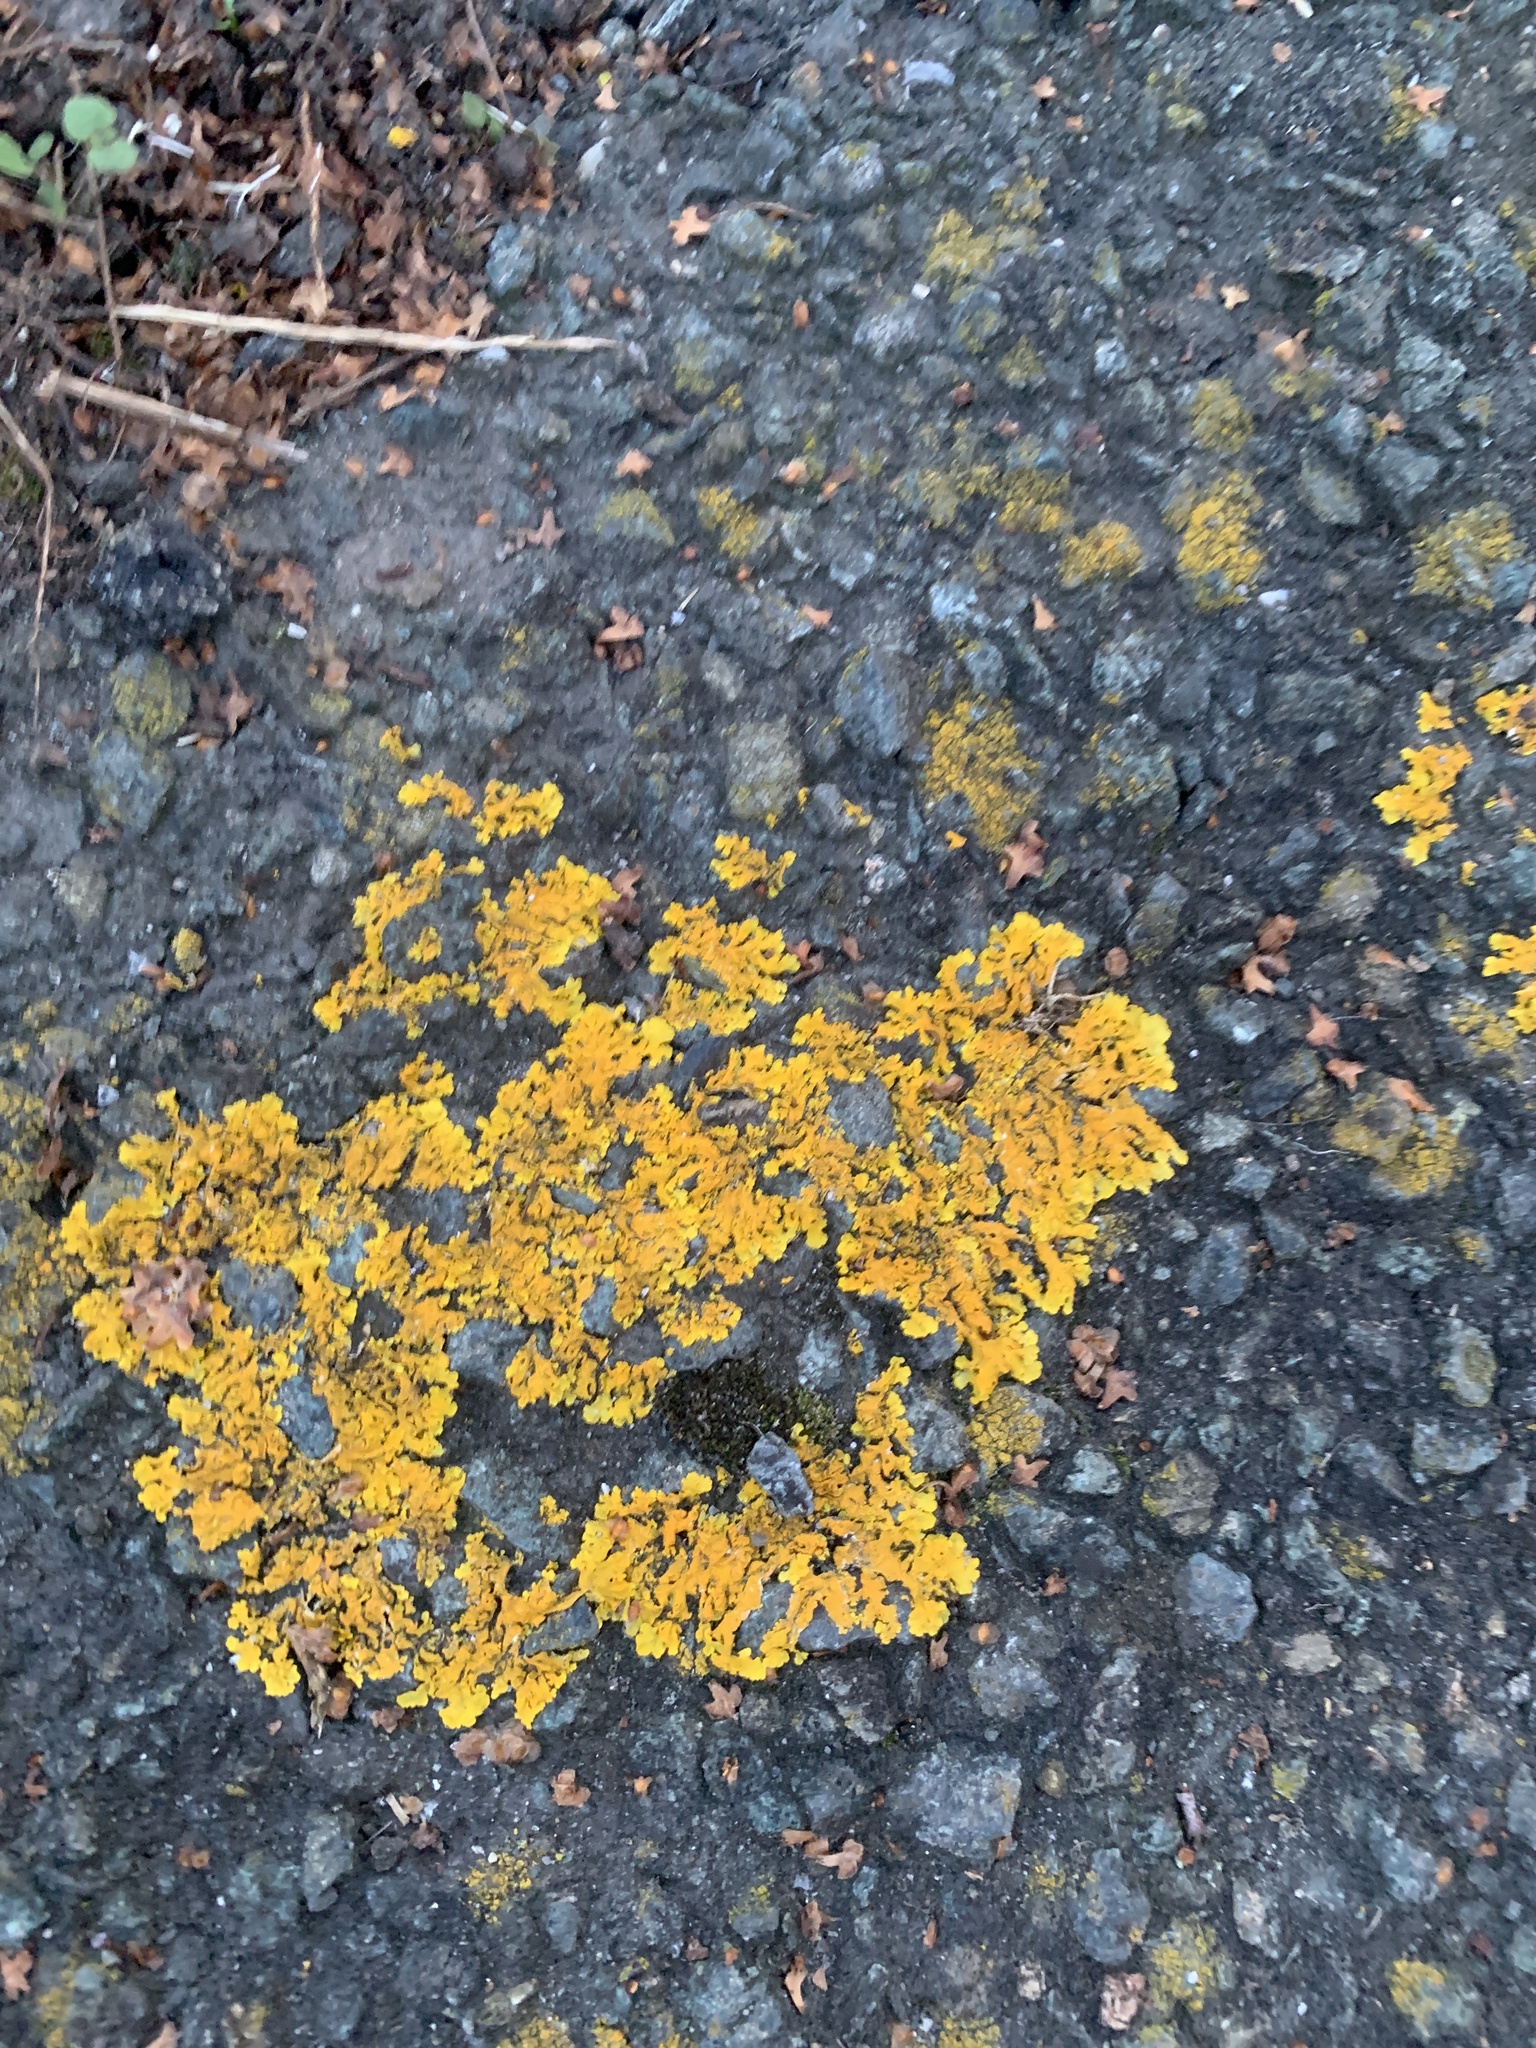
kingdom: Fungi
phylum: Ascomycota
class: Lecanoromycetes
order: Teloschistales
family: Teloschistaceae
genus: Xanthoria
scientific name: Xanthoria parietina
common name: Common orange lichen
